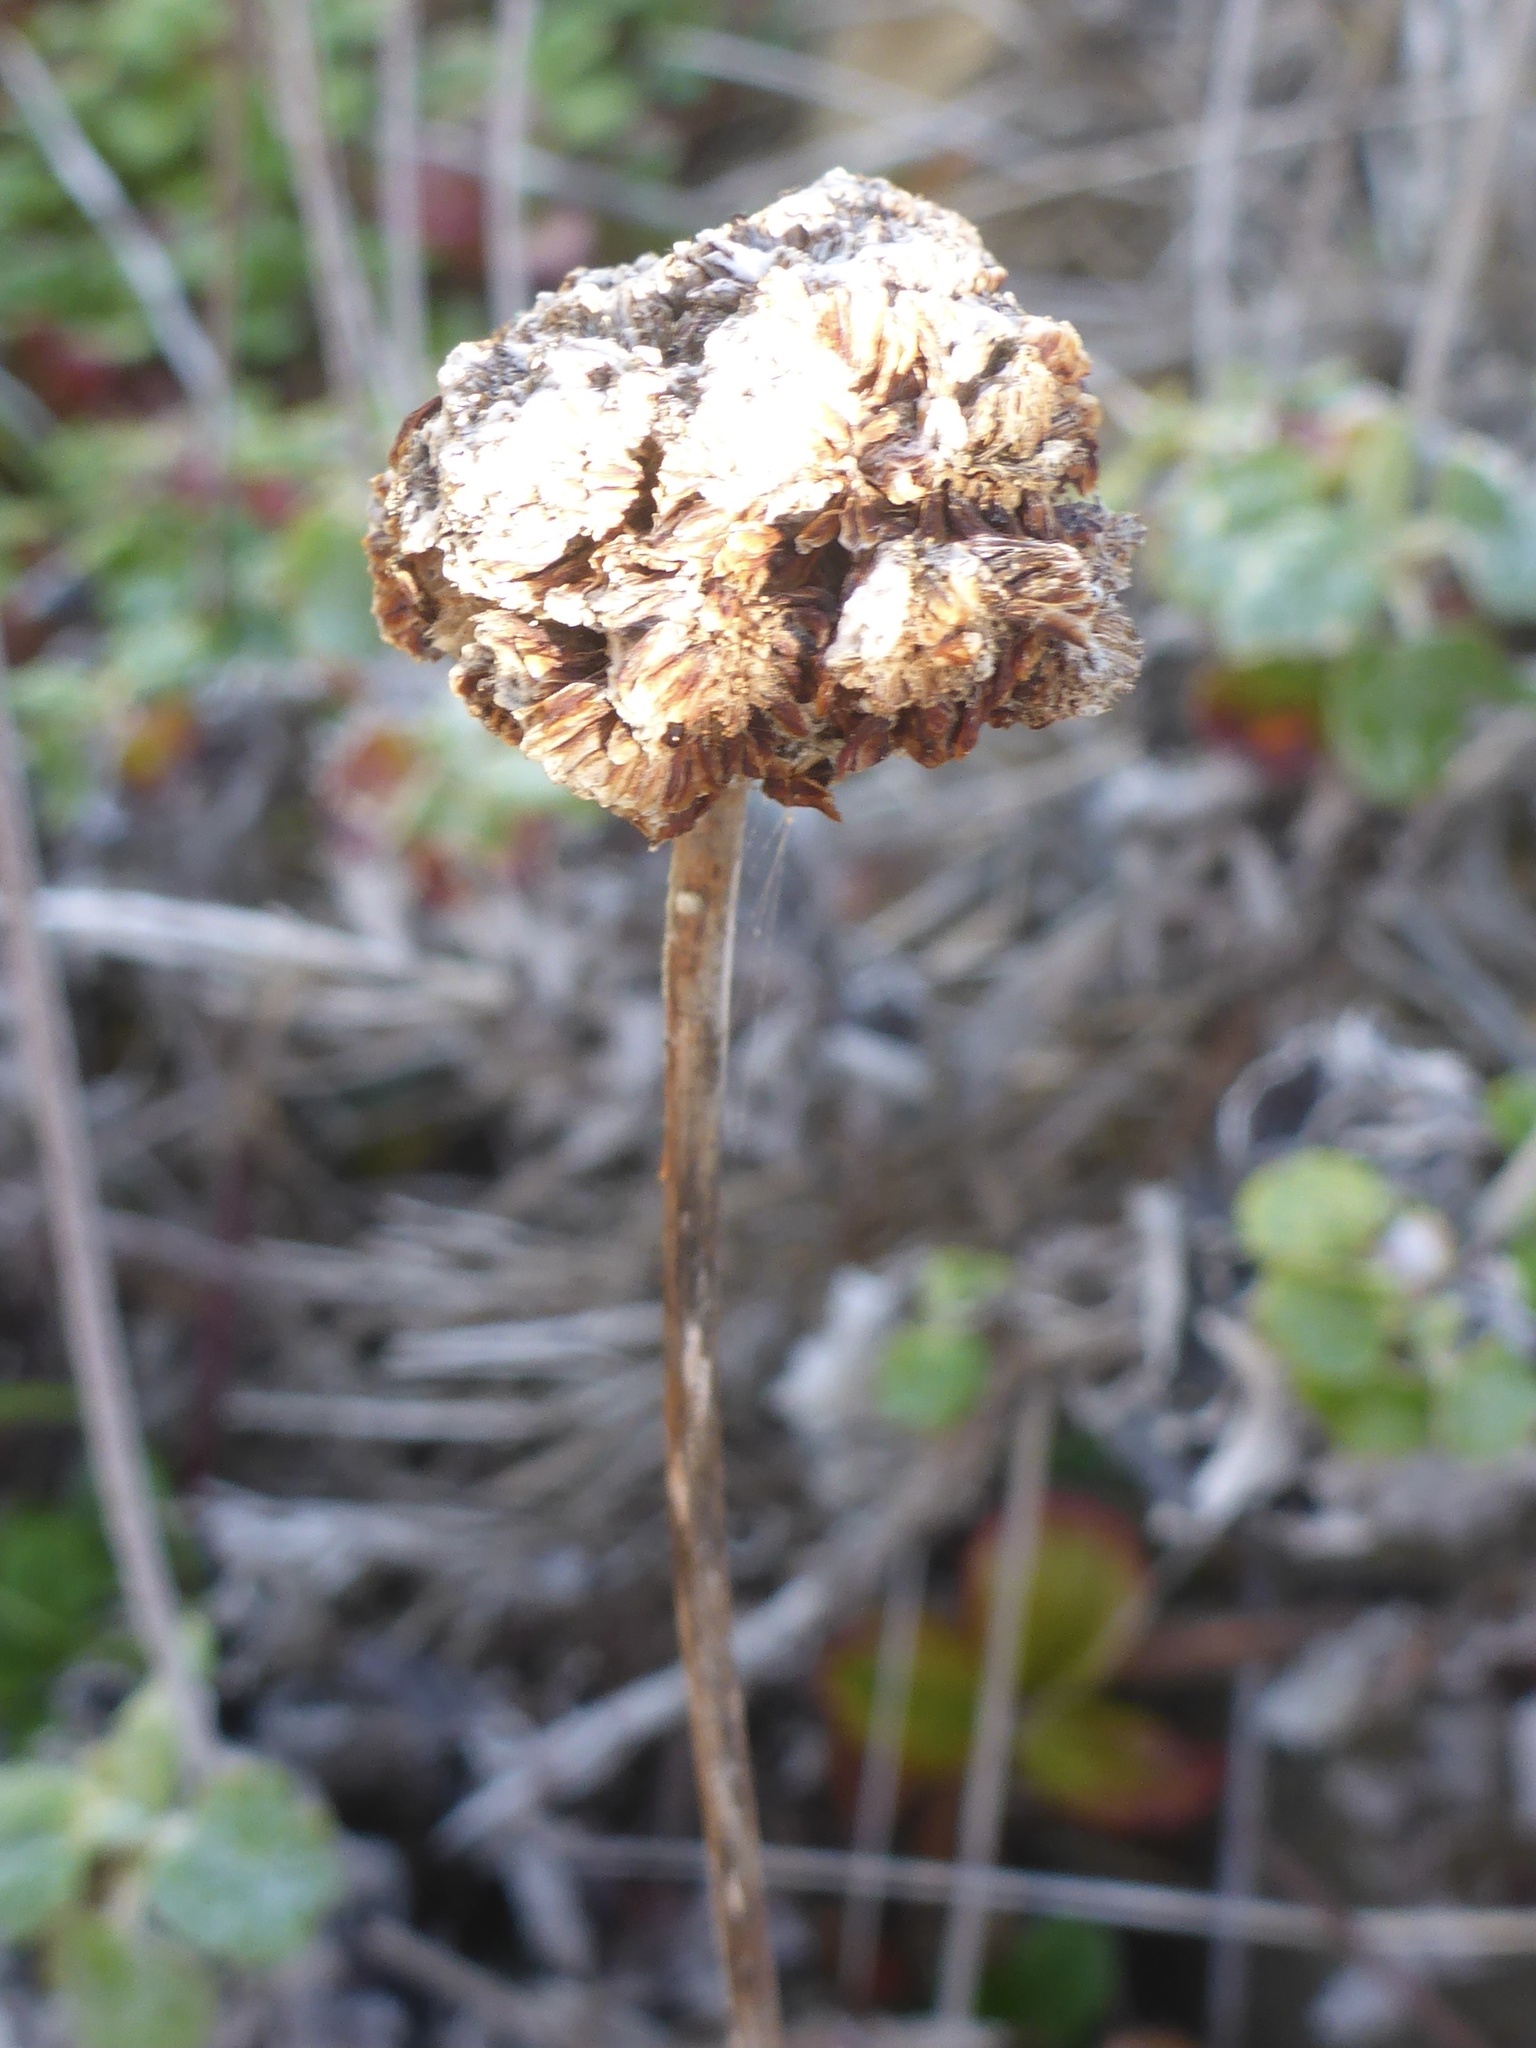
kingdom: Plantae
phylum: Tracheophyta
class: Magnoliopsida
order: Caryophyllales
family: Polygonaceae
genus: Eriogonum
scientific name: Eriogonum latifolium
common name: Seaside wild buckwheat
